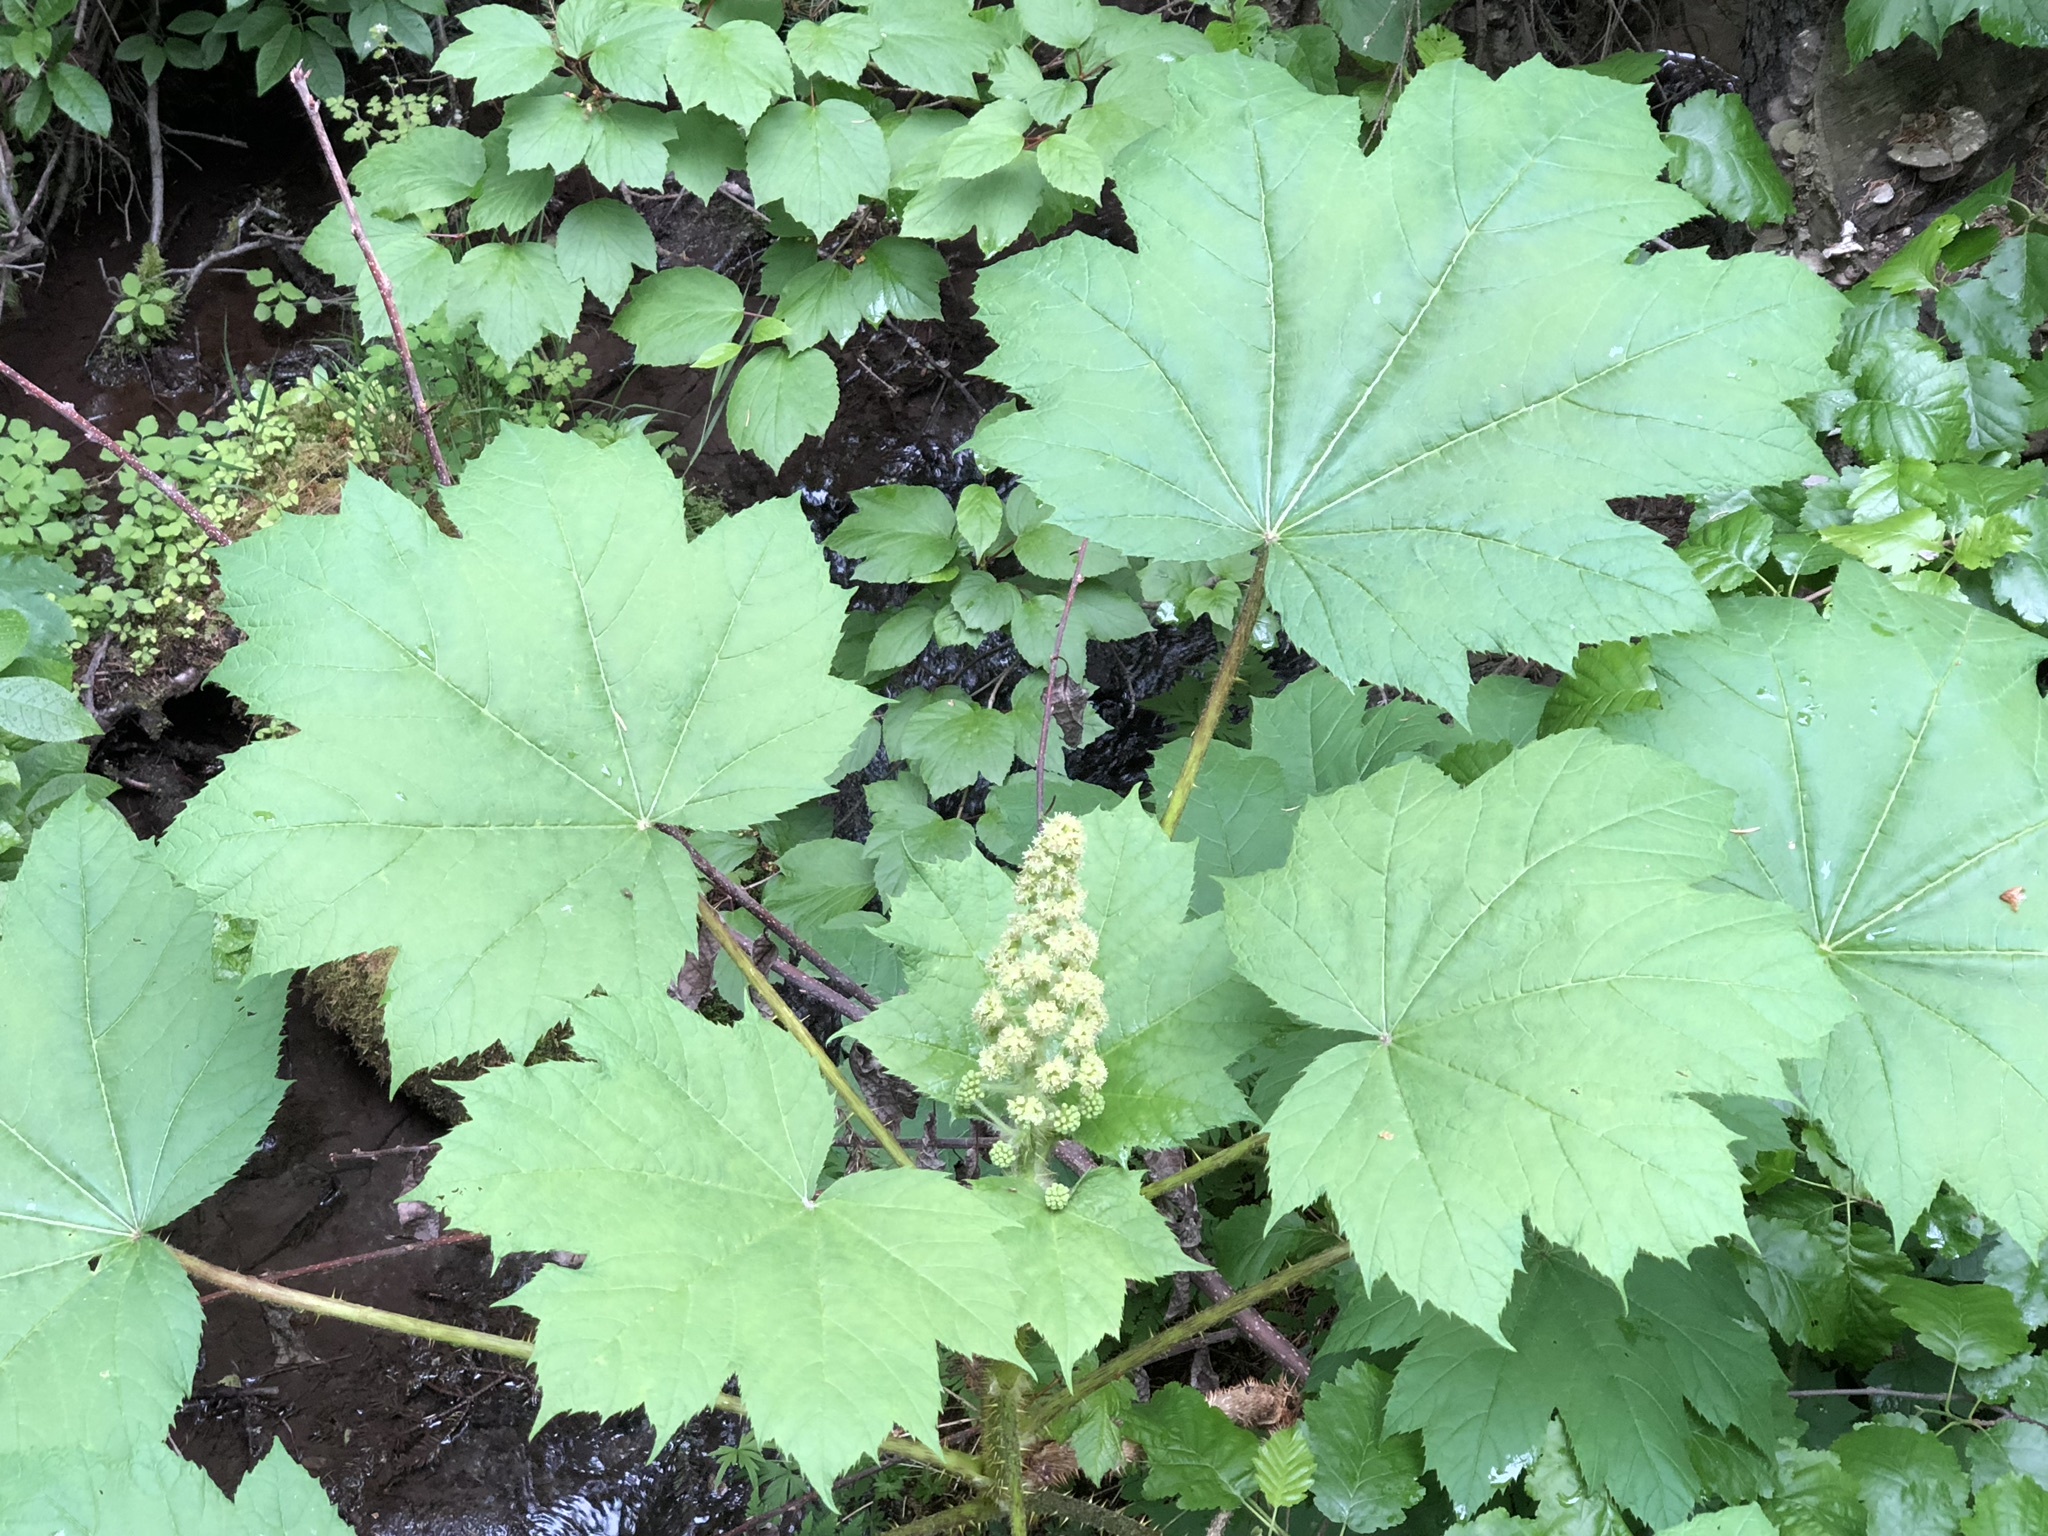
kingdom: Plantae
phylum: Tracheophyta
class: Magnoliopsida
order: Apiales
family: Araliaceae
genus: Oplopanax
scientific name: Oplopanax horridus
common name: Devil's walking-stick
